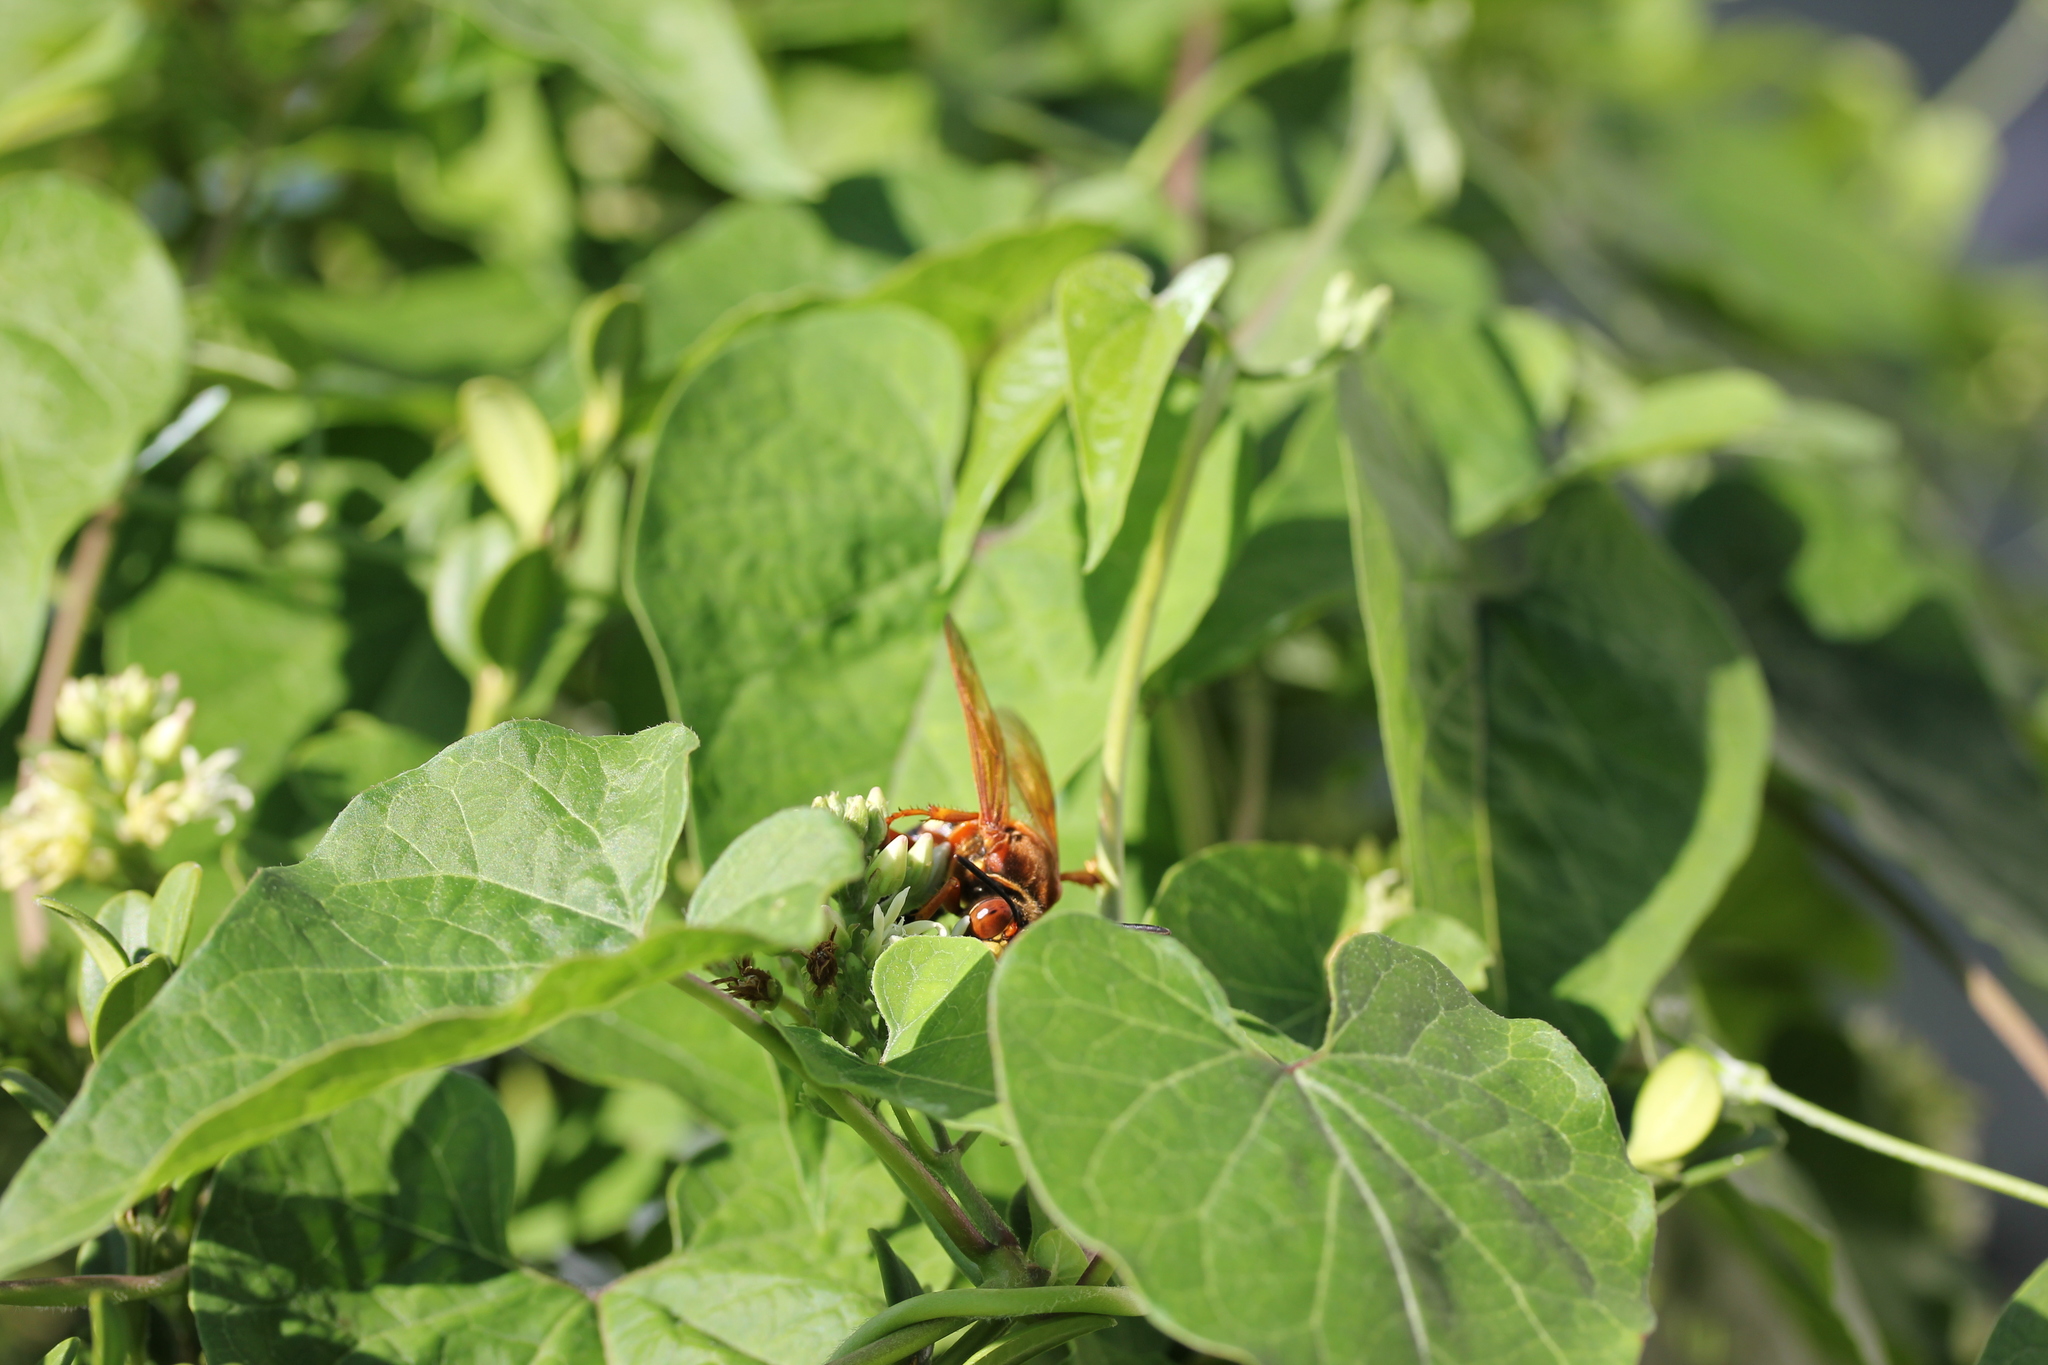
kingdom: Plantae
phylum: Tracheophyta
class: Magnoliopsida
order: Gentianales
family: Apocynaceae
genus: Cynanchum
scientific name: Cynanchum laeve
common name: Sandvine
